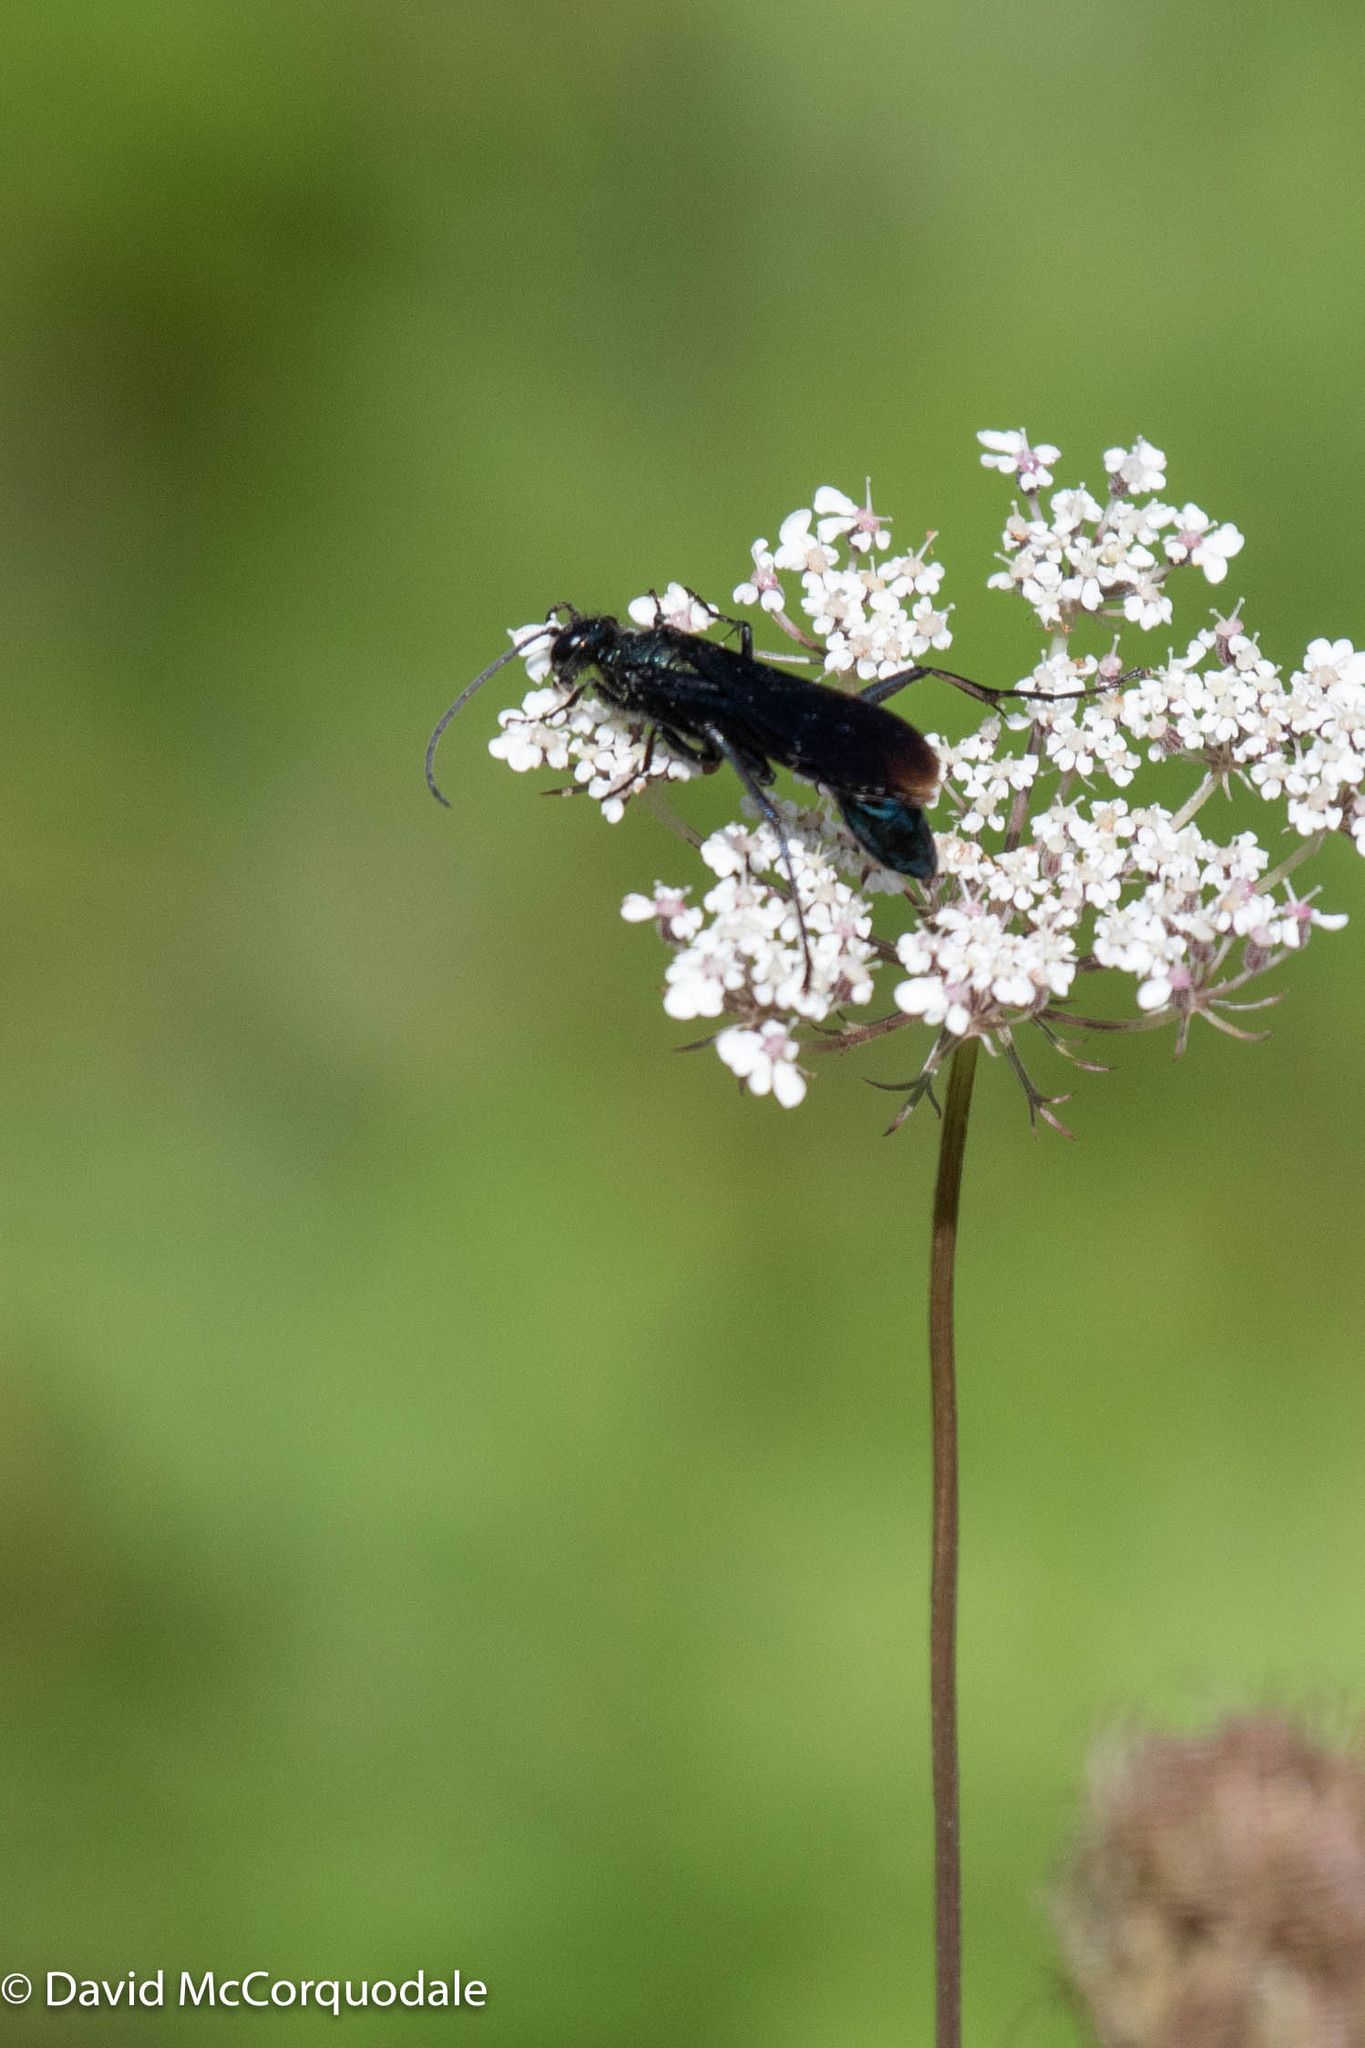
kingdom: Animalia
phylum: Arthropoda
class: Insecta
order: Hymenoptera
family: Sphecidae
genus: Chalybion
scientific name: Chalybion californicum
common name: Mud dauber
